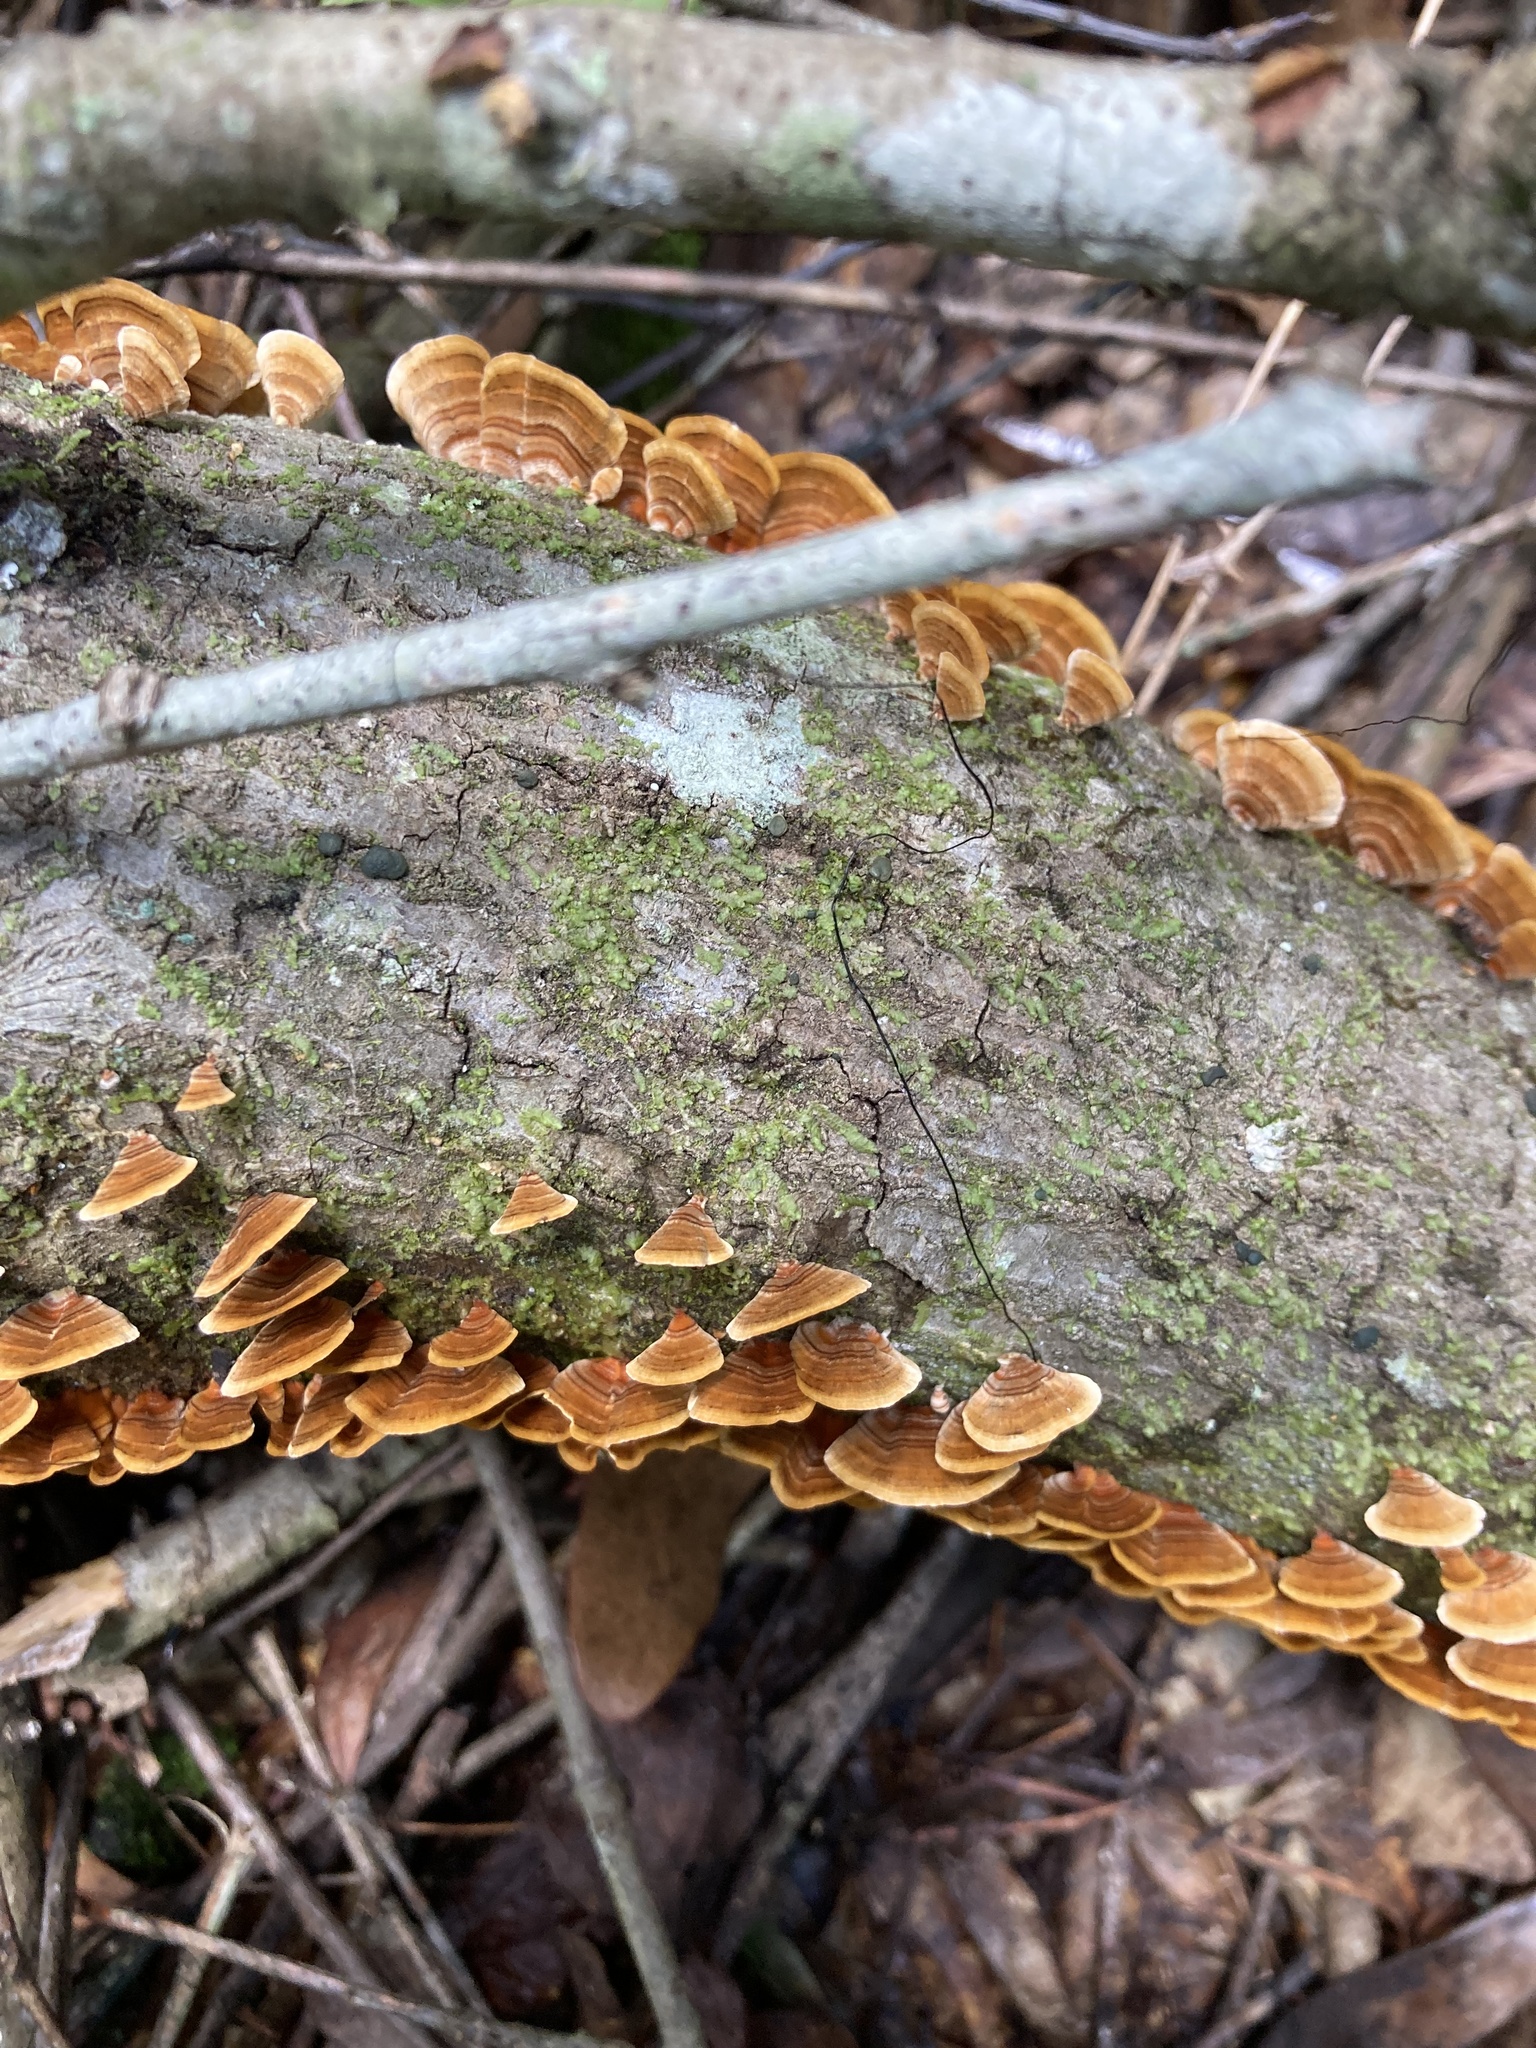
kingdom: Fungi
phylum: Basidiomycota
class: Agaricomycetes
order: Russulales
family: Stereaceae
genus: Stereum
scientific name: Stereum complicatum
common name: Crowded parchment
